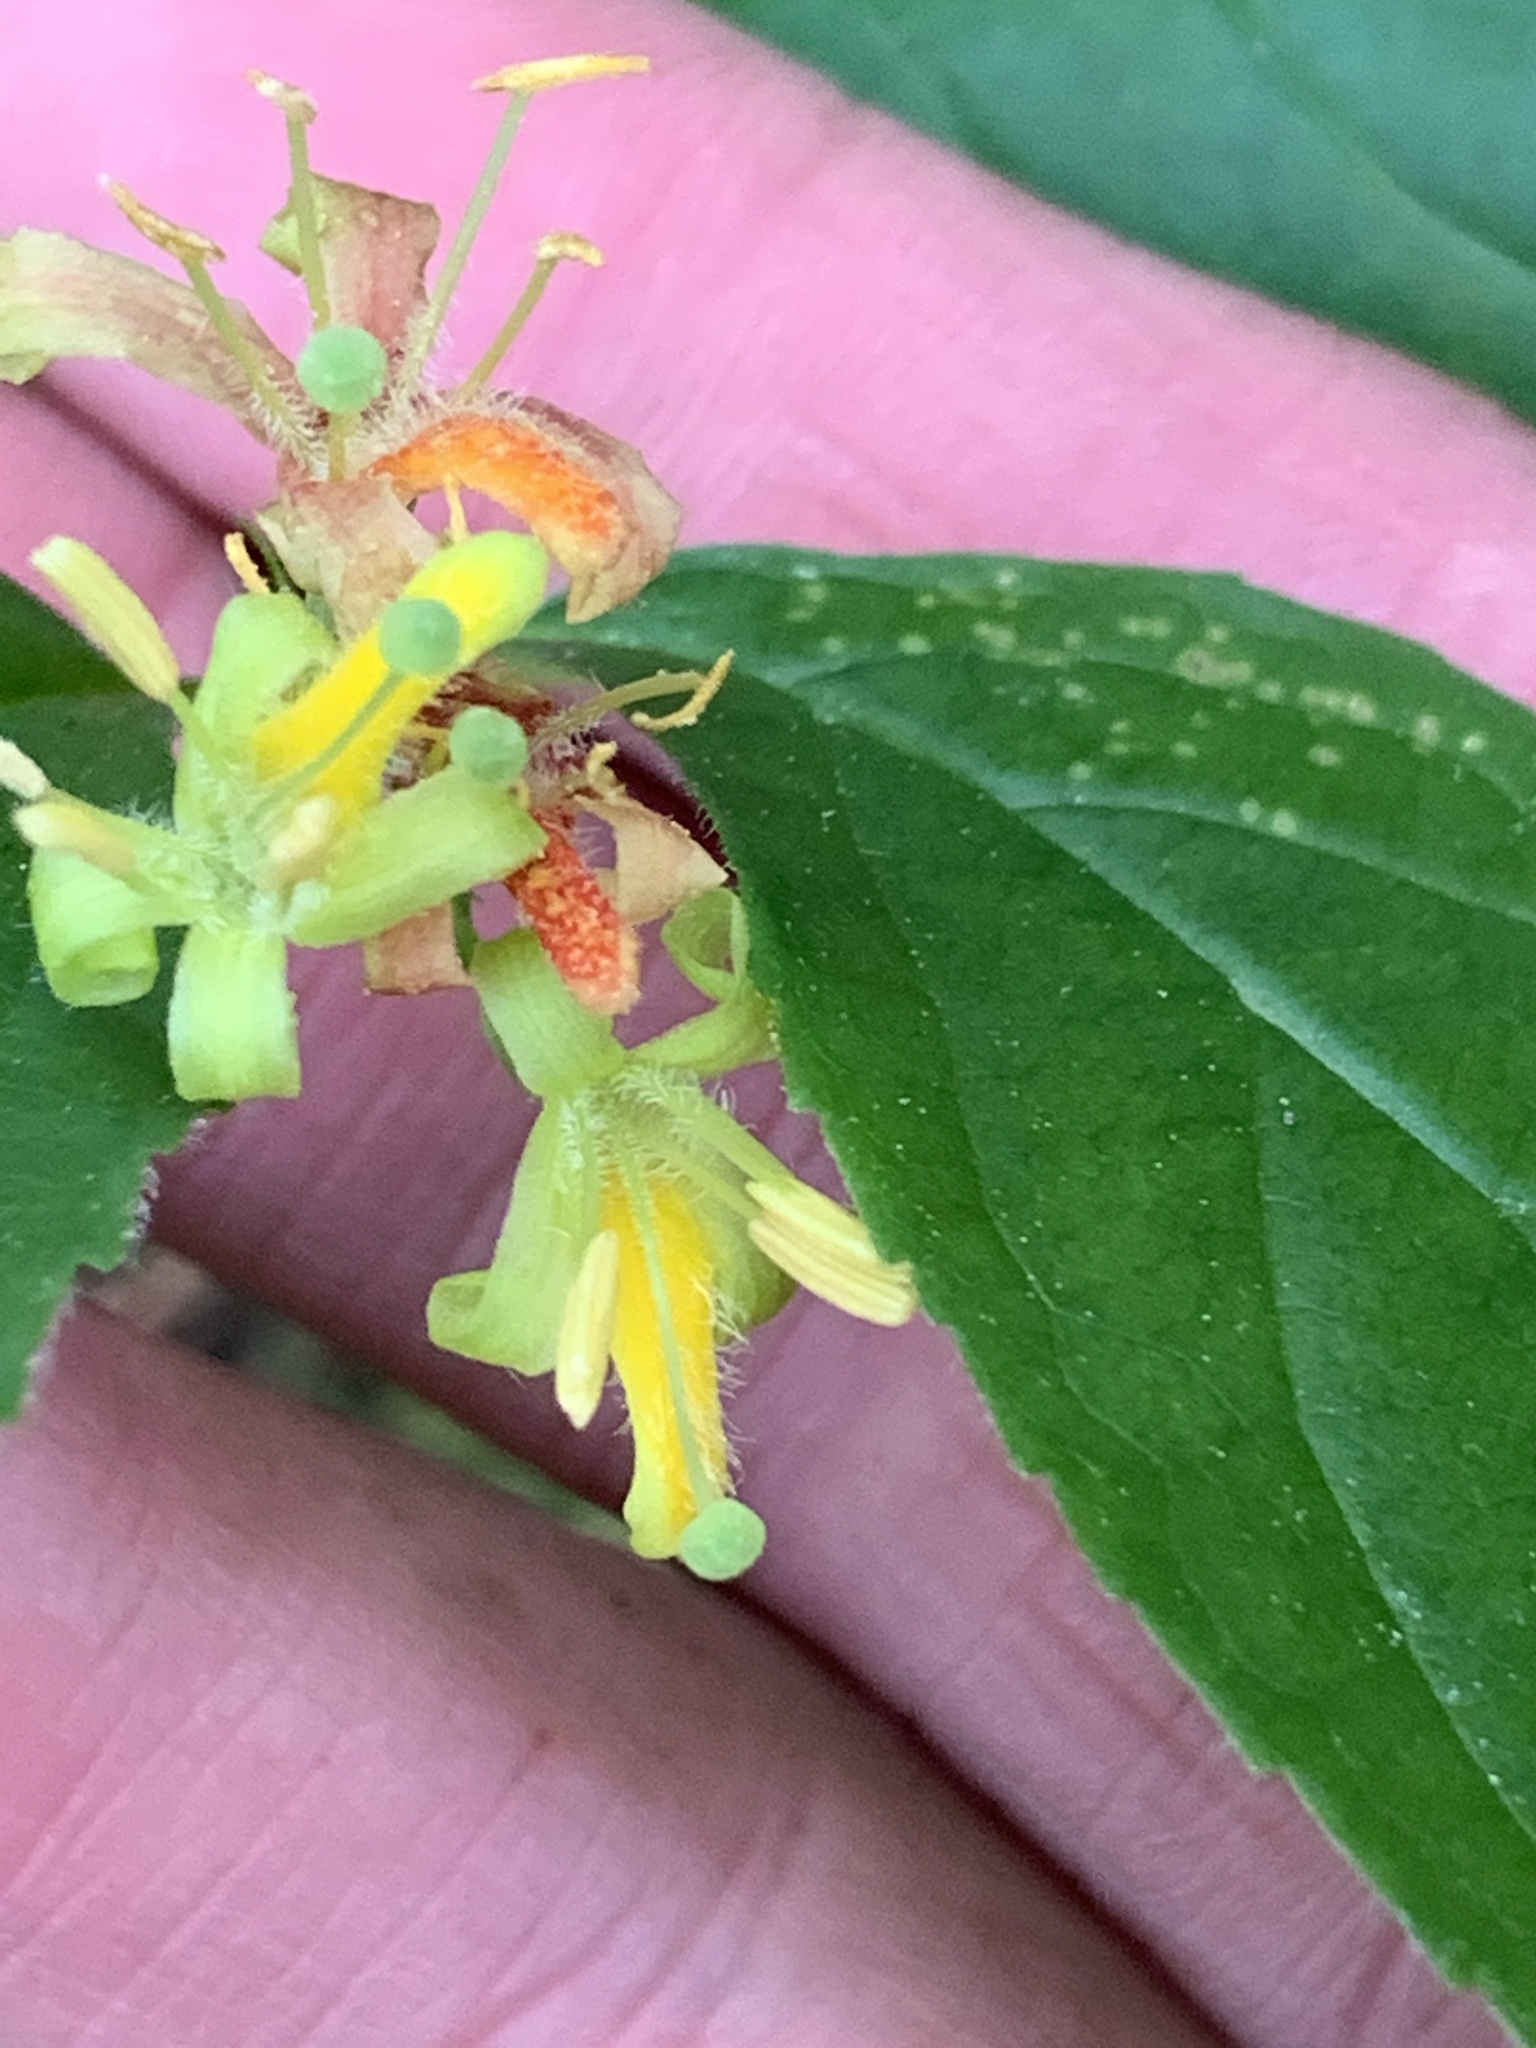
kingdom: Plantae
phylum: Tracheophyta
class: Magnoliopsida
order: Dipsacales
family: Caprifoliaceae
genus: Diervilla
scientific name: Diervilla lonicera
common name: Bush-honeysuckle
